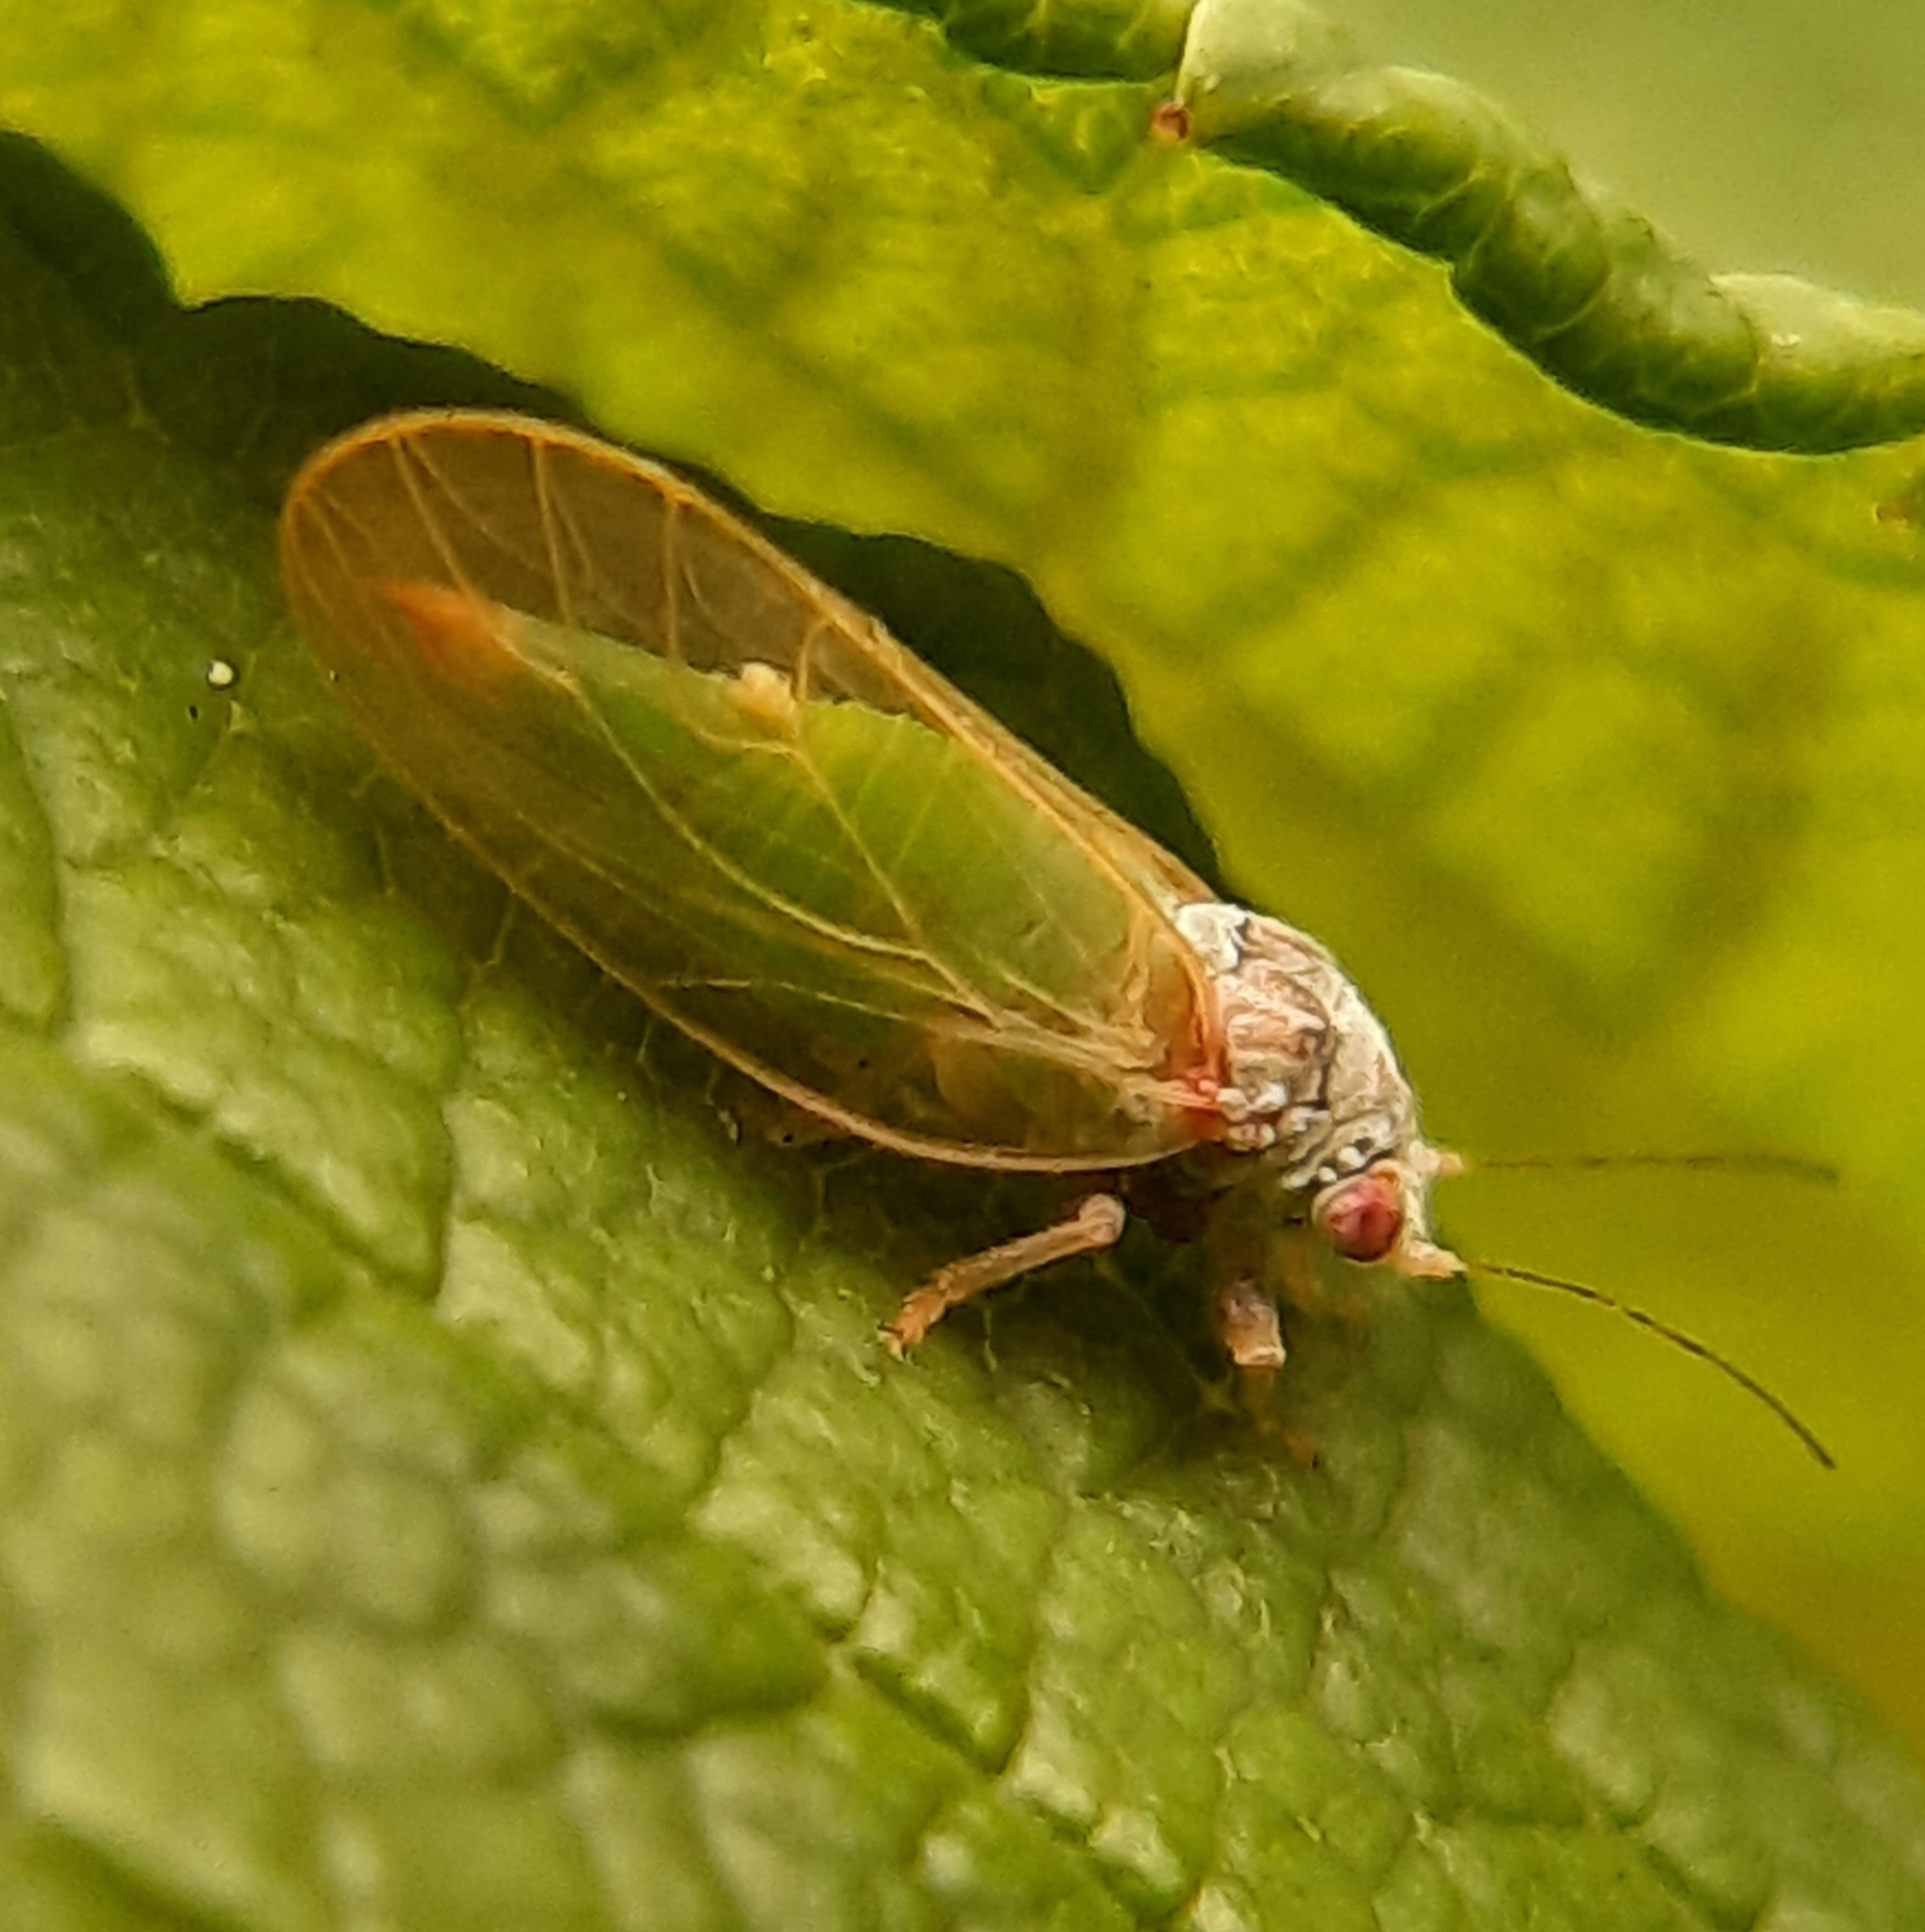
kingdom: Animalia
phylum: Arthropoda
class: Insecta
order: Hemiptera
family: Psyllidae
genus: Psylla
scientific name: Psylla buxi
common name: Boxwood psyllid
